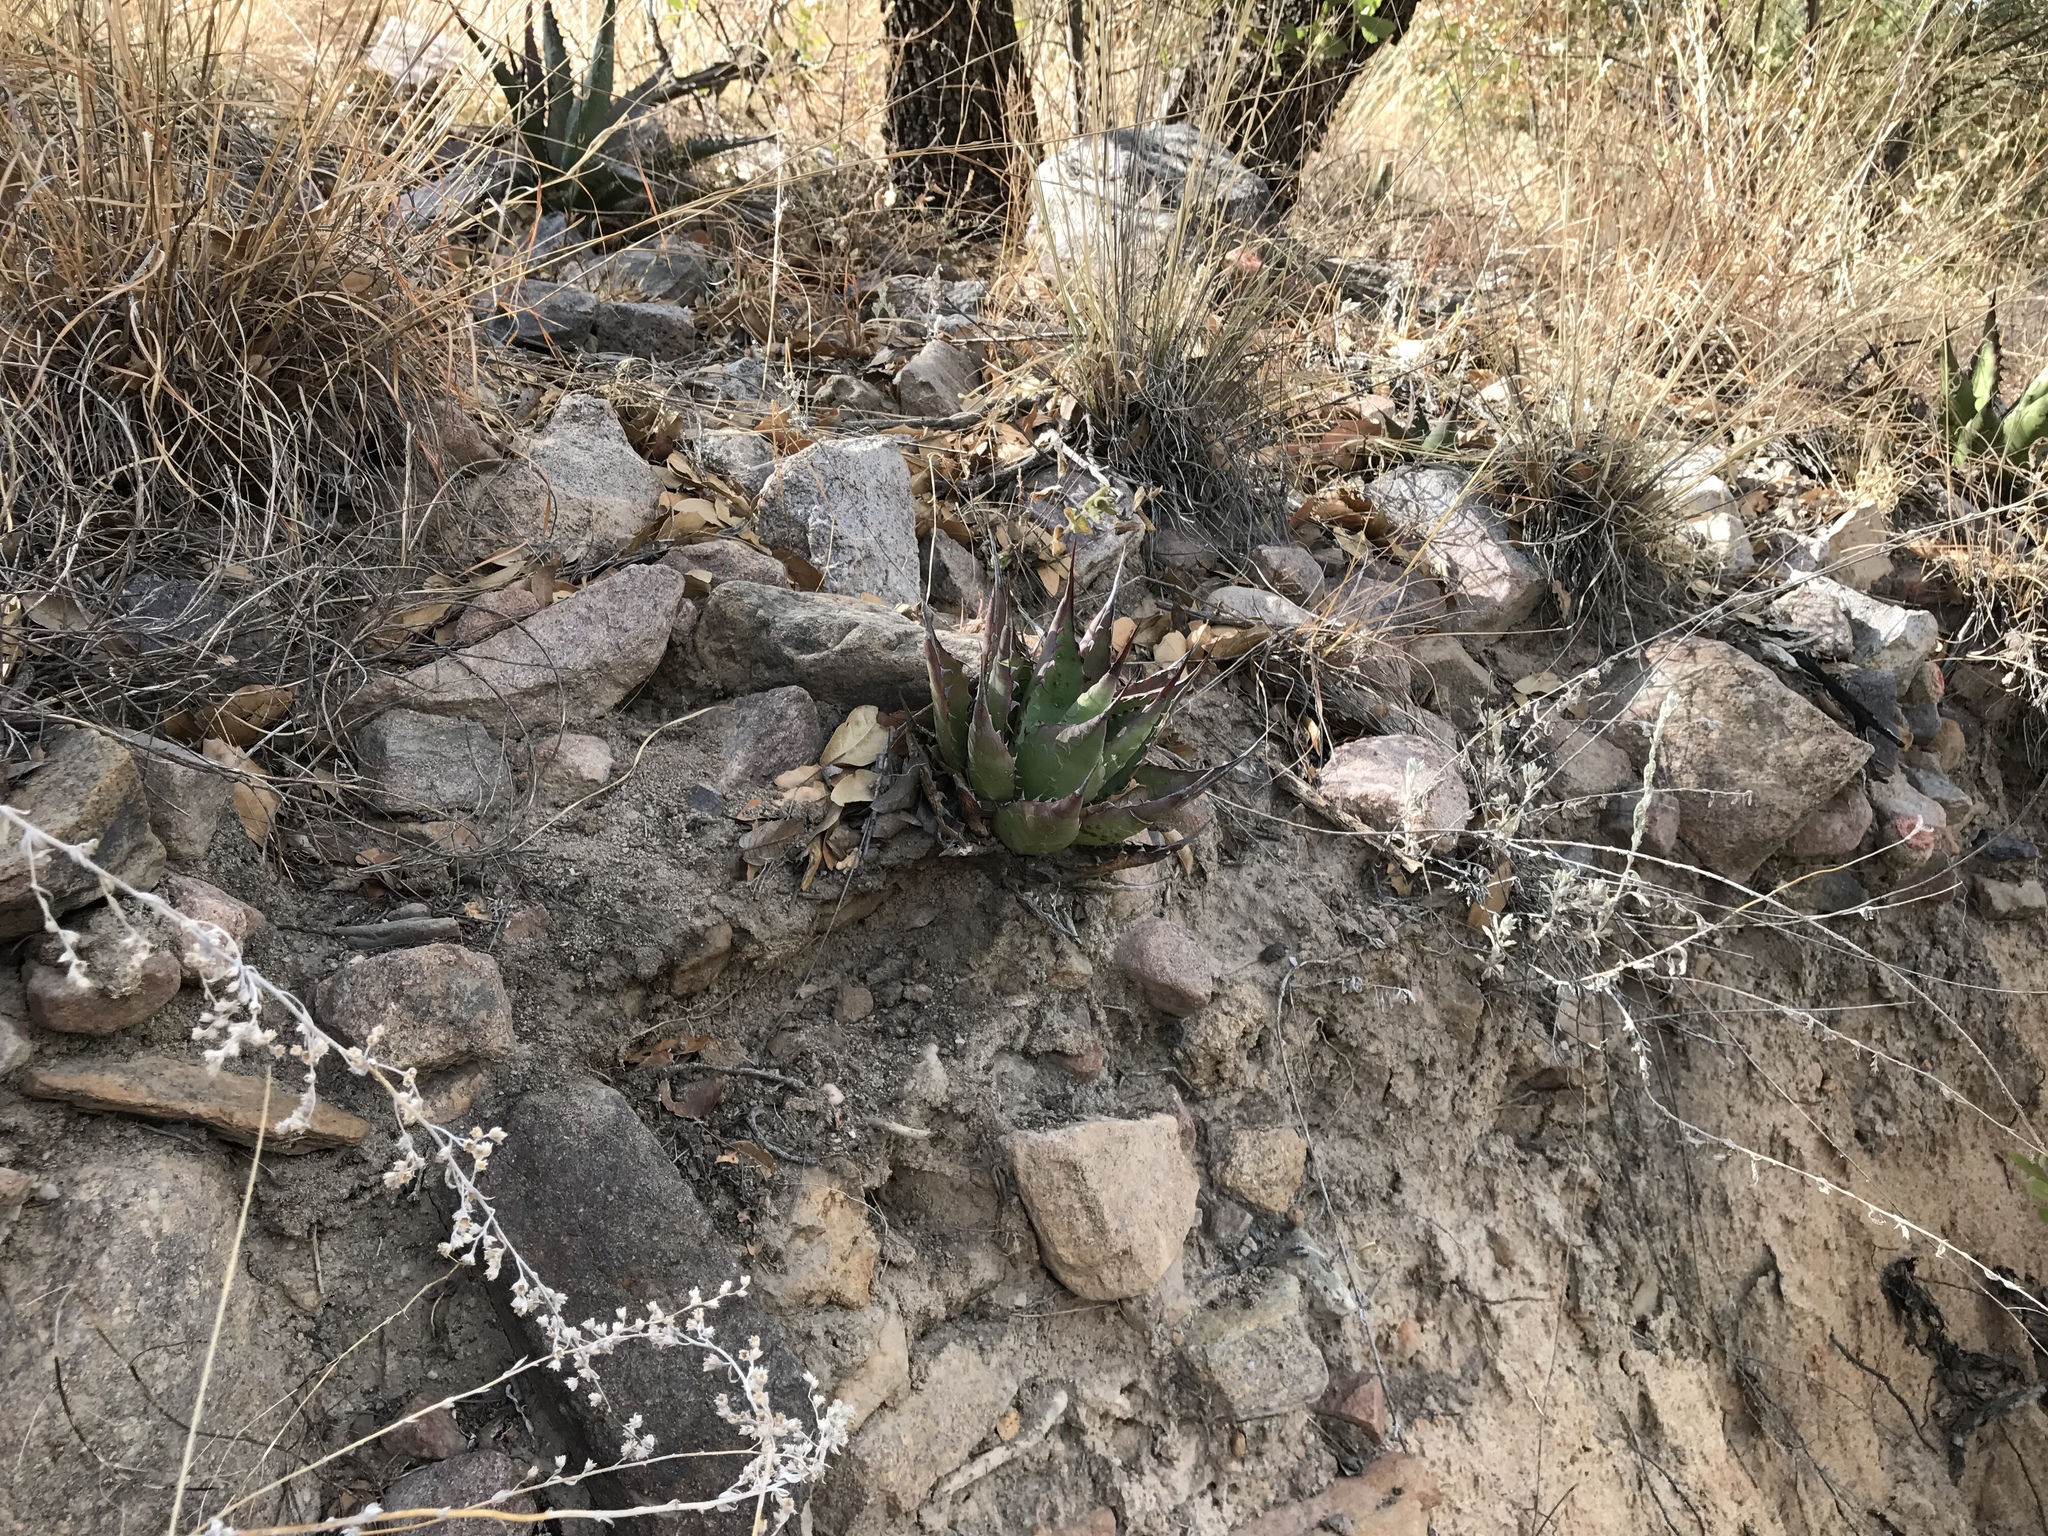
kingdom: Plantae
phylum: Tracheophyta
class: Liliopsida
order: Asparagales
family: Asparagaceae
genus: Agave
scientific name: Agave shrevei
